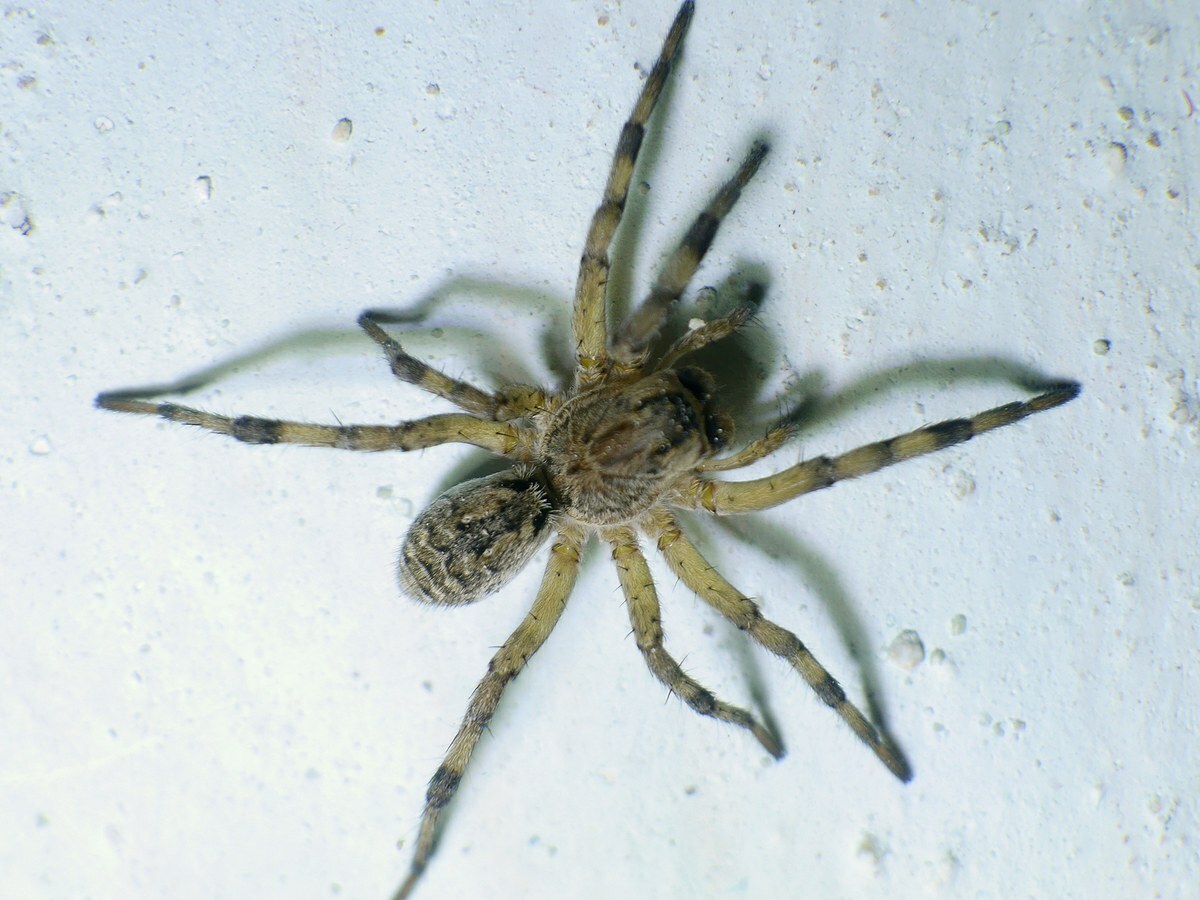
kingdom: Animalia
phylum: Arthropoda
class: Arachnida
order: Araneae
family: Lycosidae
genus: Geolycosa
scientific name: Geolycosa vultuosa
